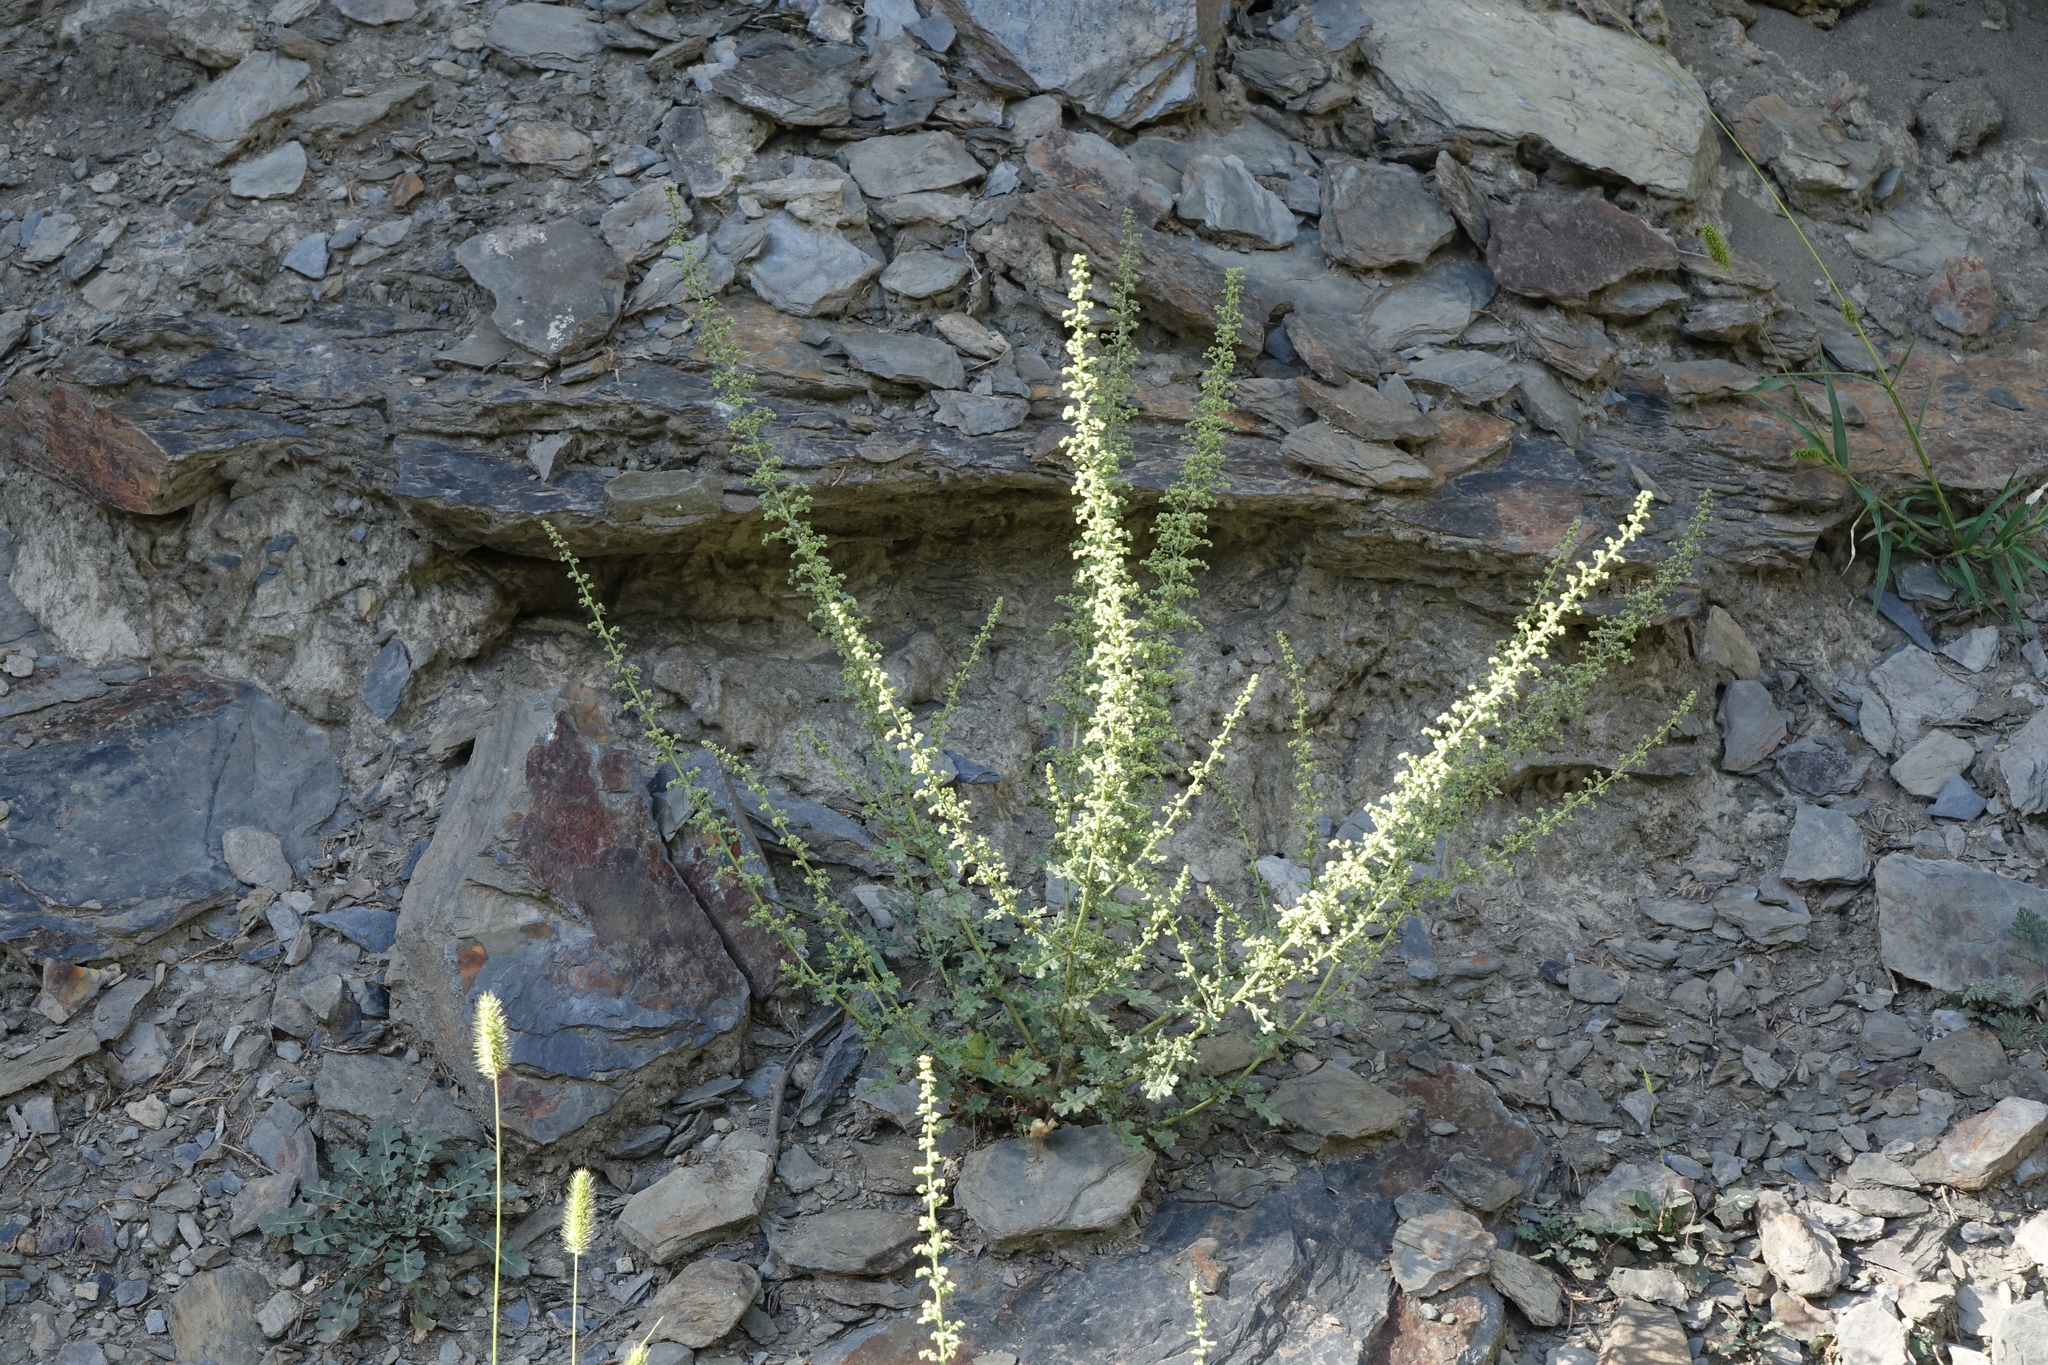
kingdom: Plantae
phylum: Tracheophyta
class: Magnoliopsida
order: Caryophyllales
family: Amaranthaceae
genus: Dysphania
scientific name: Dysphania botrys
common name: Feather-geranium
